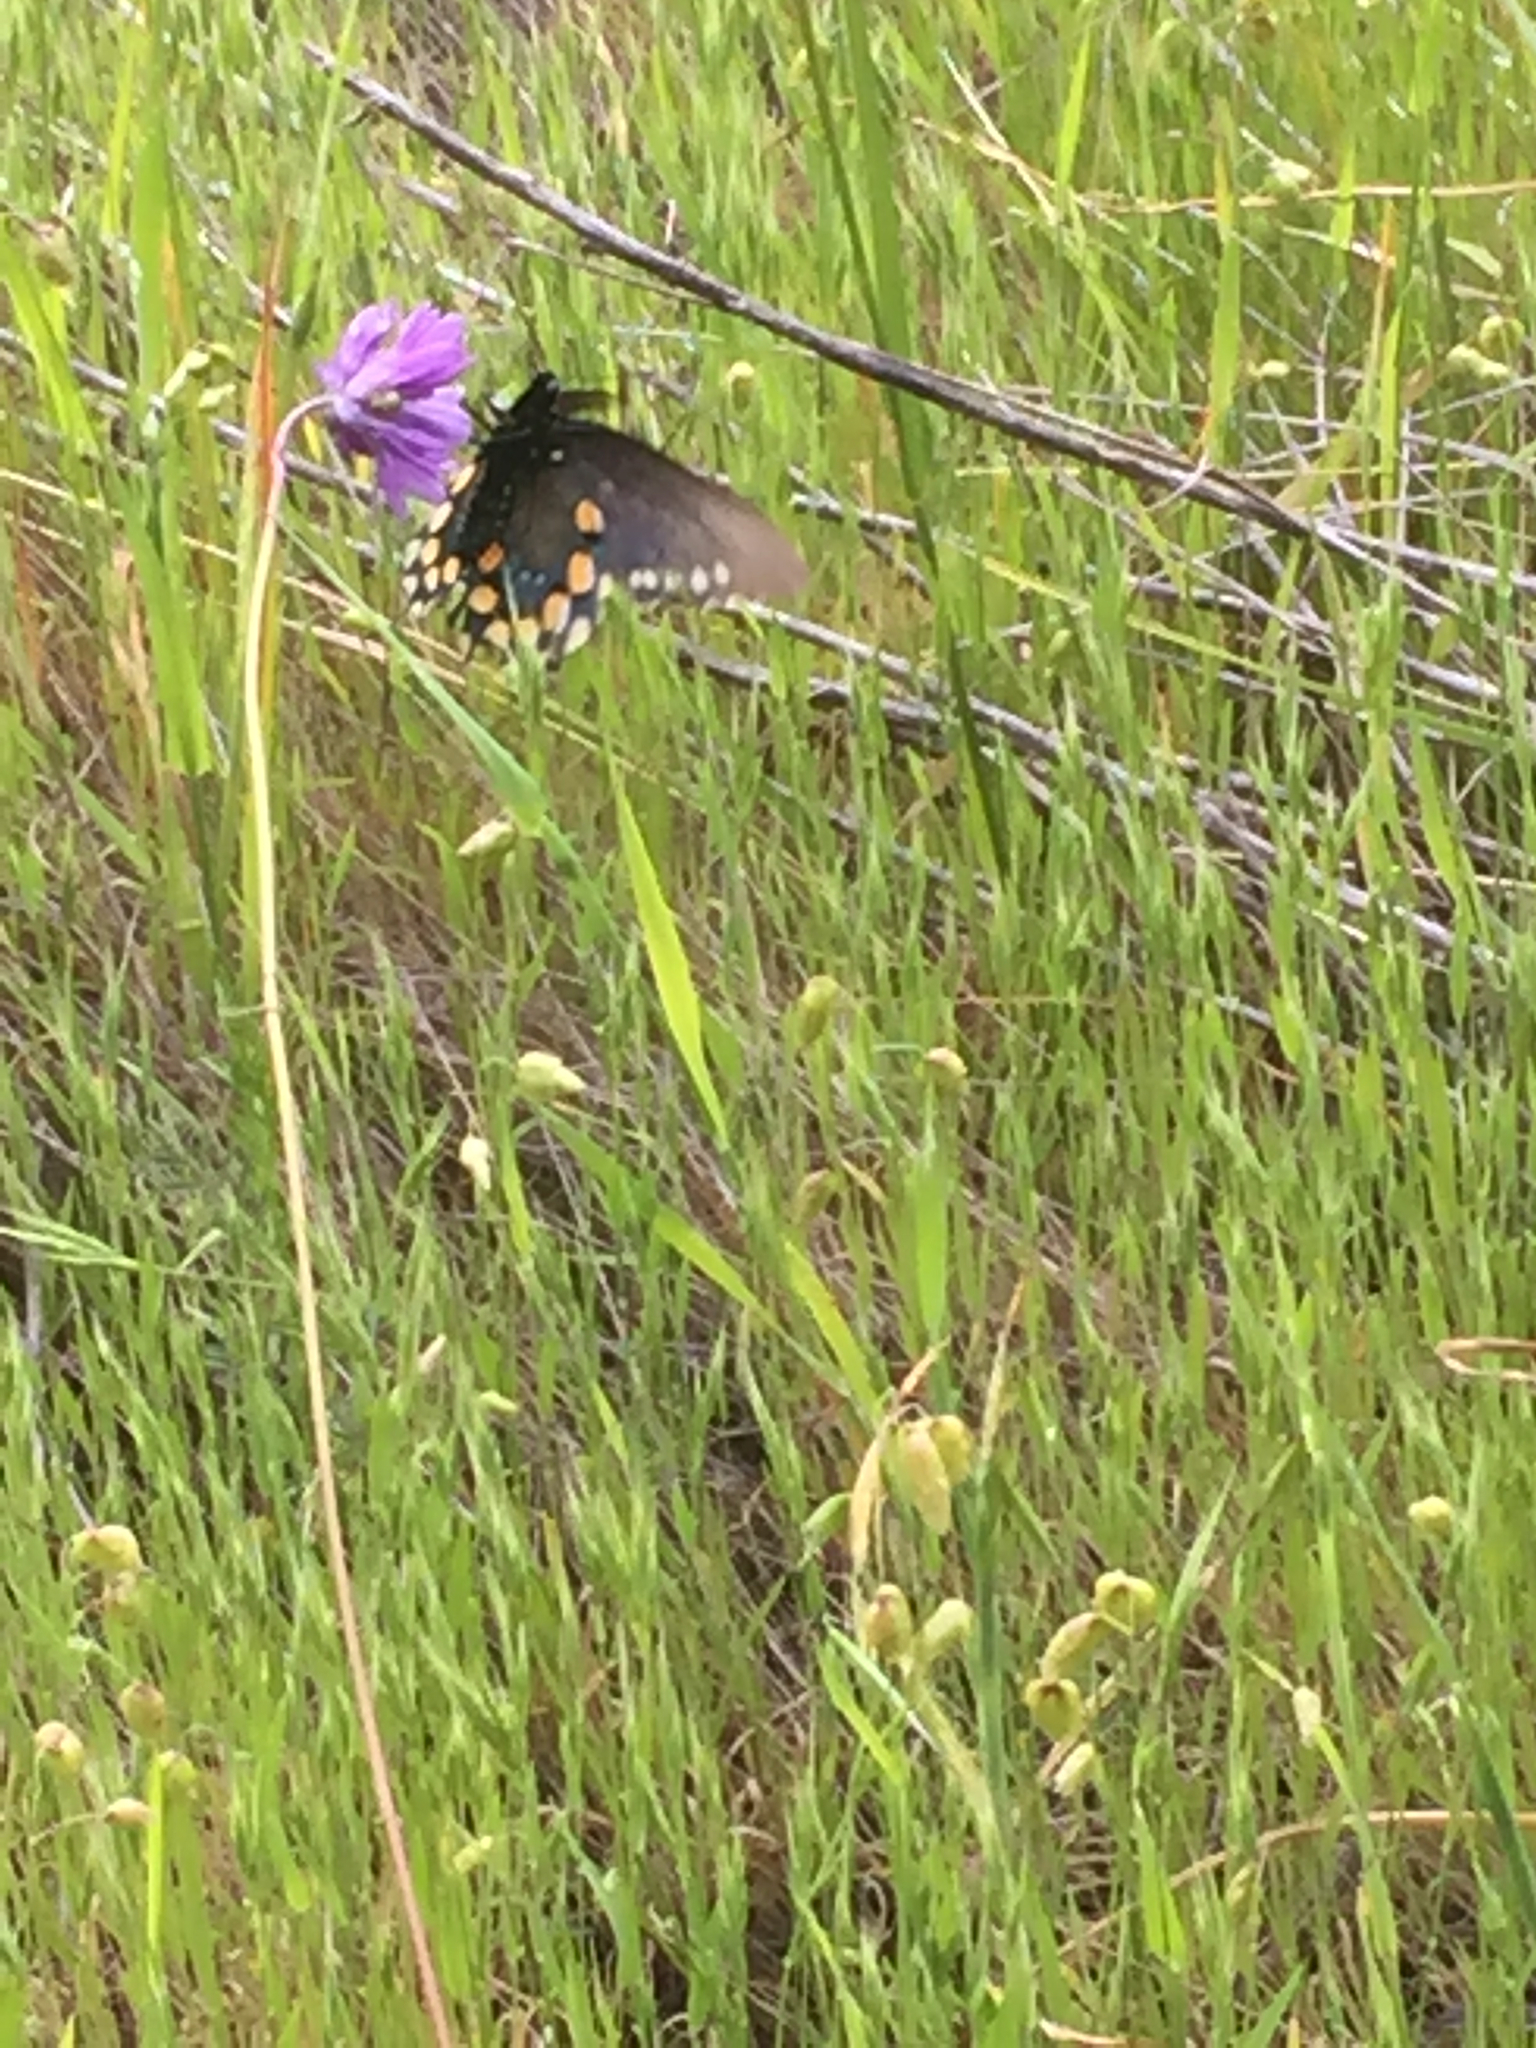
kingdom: Animalia
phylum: Arthropoda
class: Insecta
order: Lepidoptera
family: Papilionidae
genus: Battus
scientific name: Battus philenor
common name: Pipevine swallowtail
